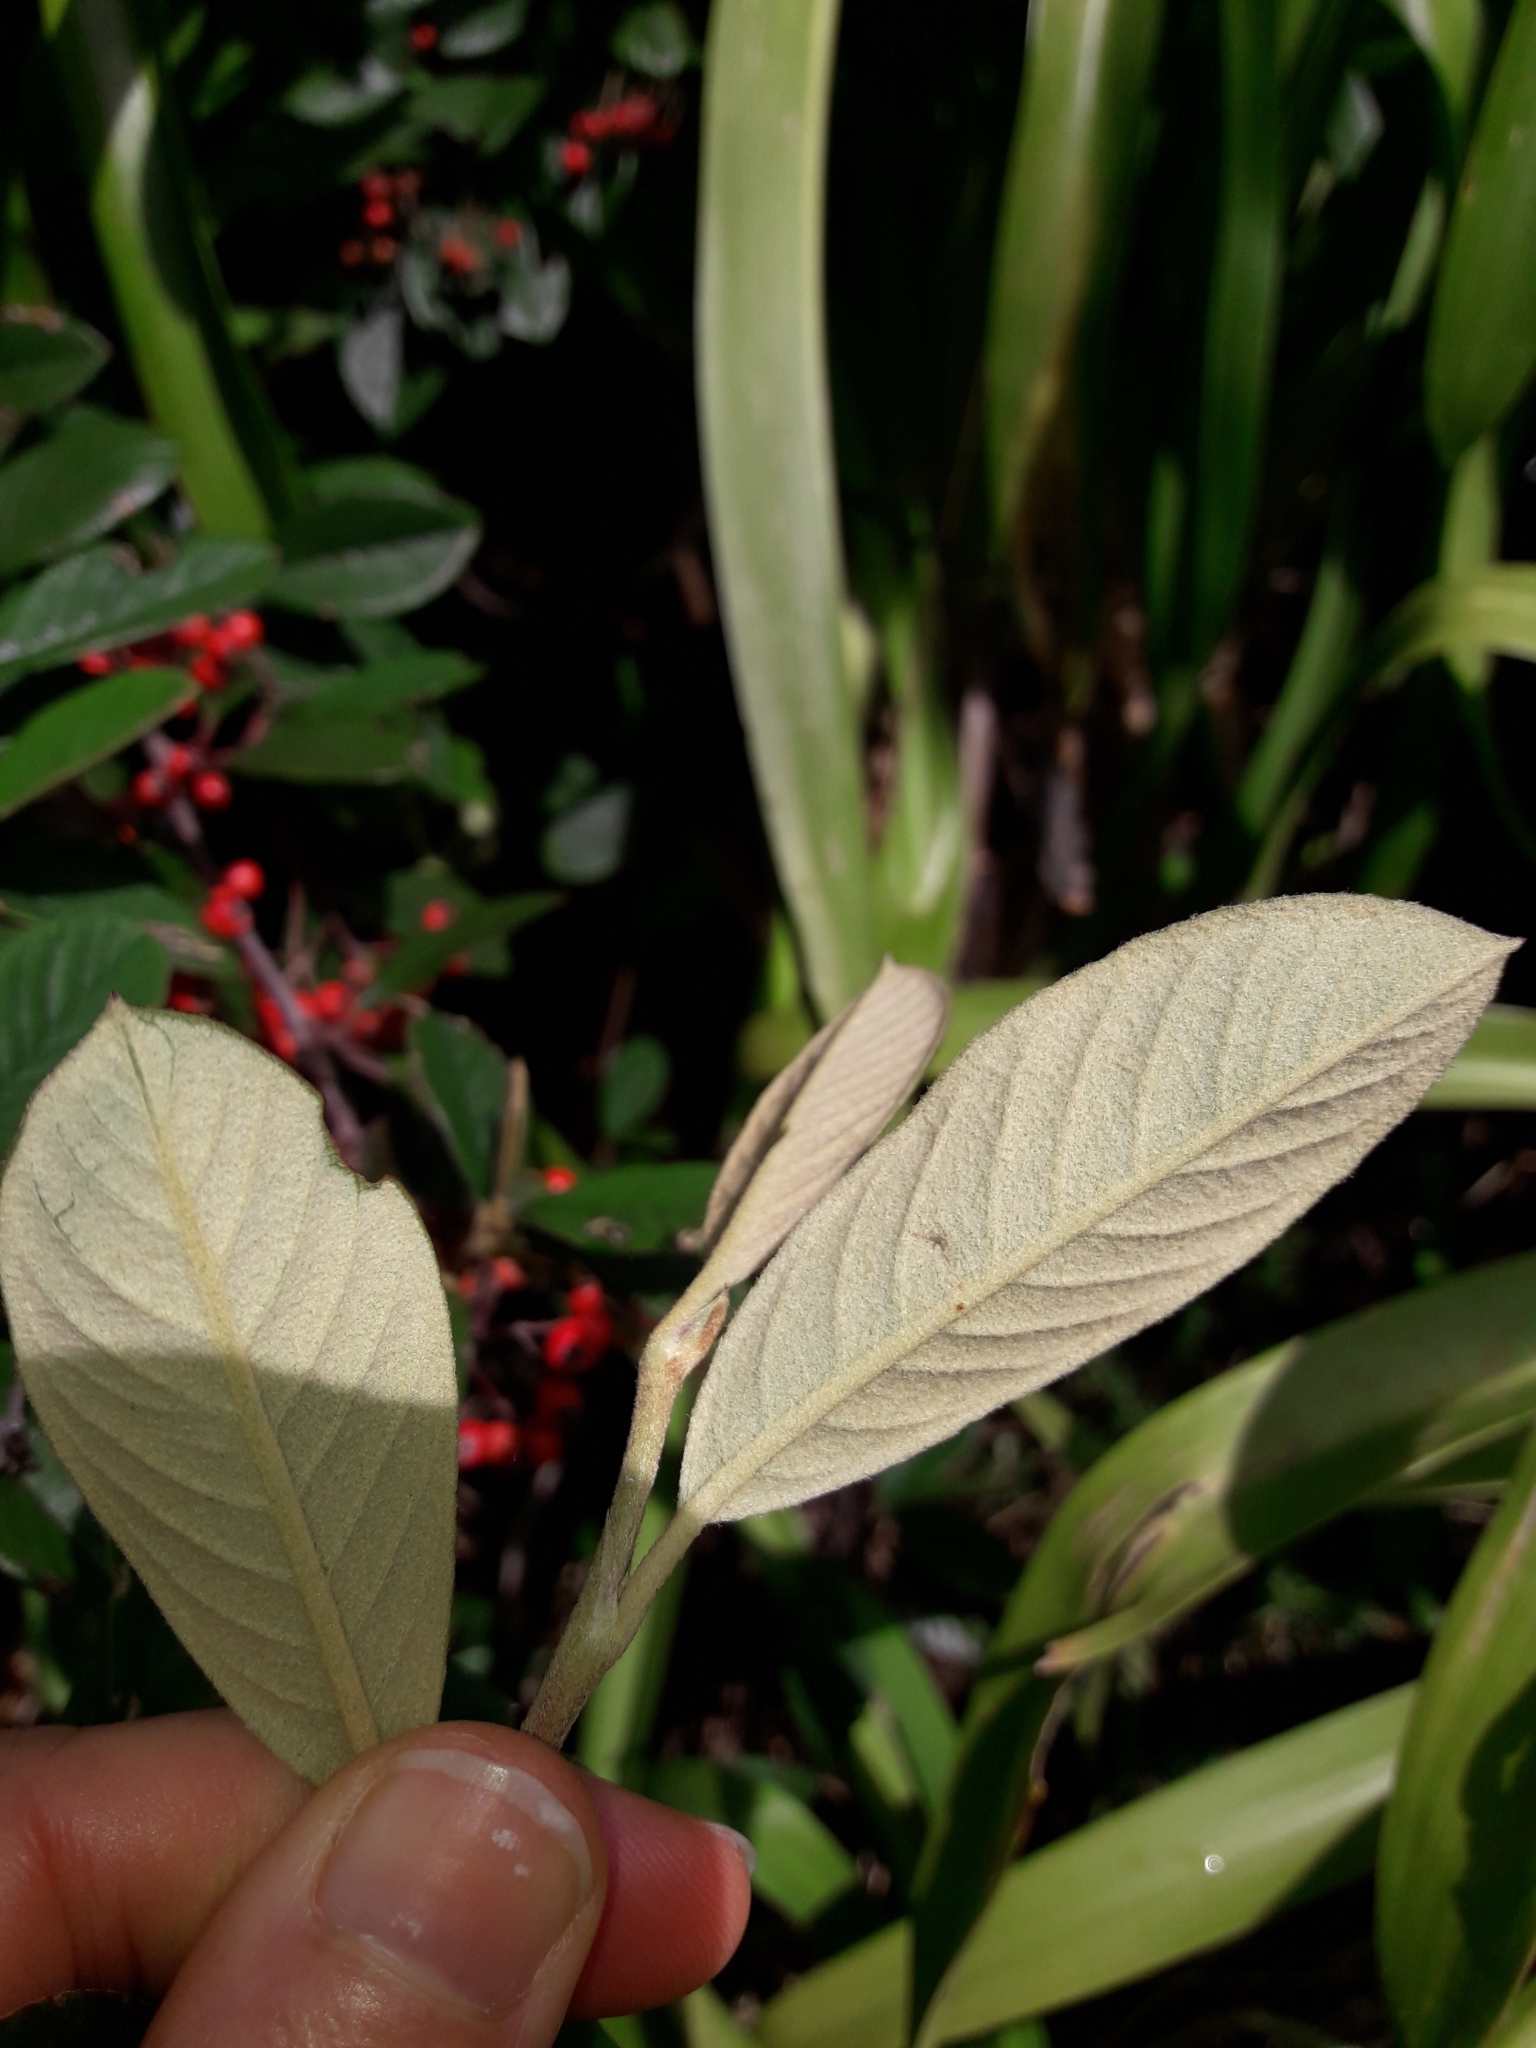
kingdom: Plantae
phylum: Tracheophyta
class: Magnoliopsida
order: Rosales
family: Rosaceae
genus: Cotoneaster
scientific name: Cotoneaster coriaceus
